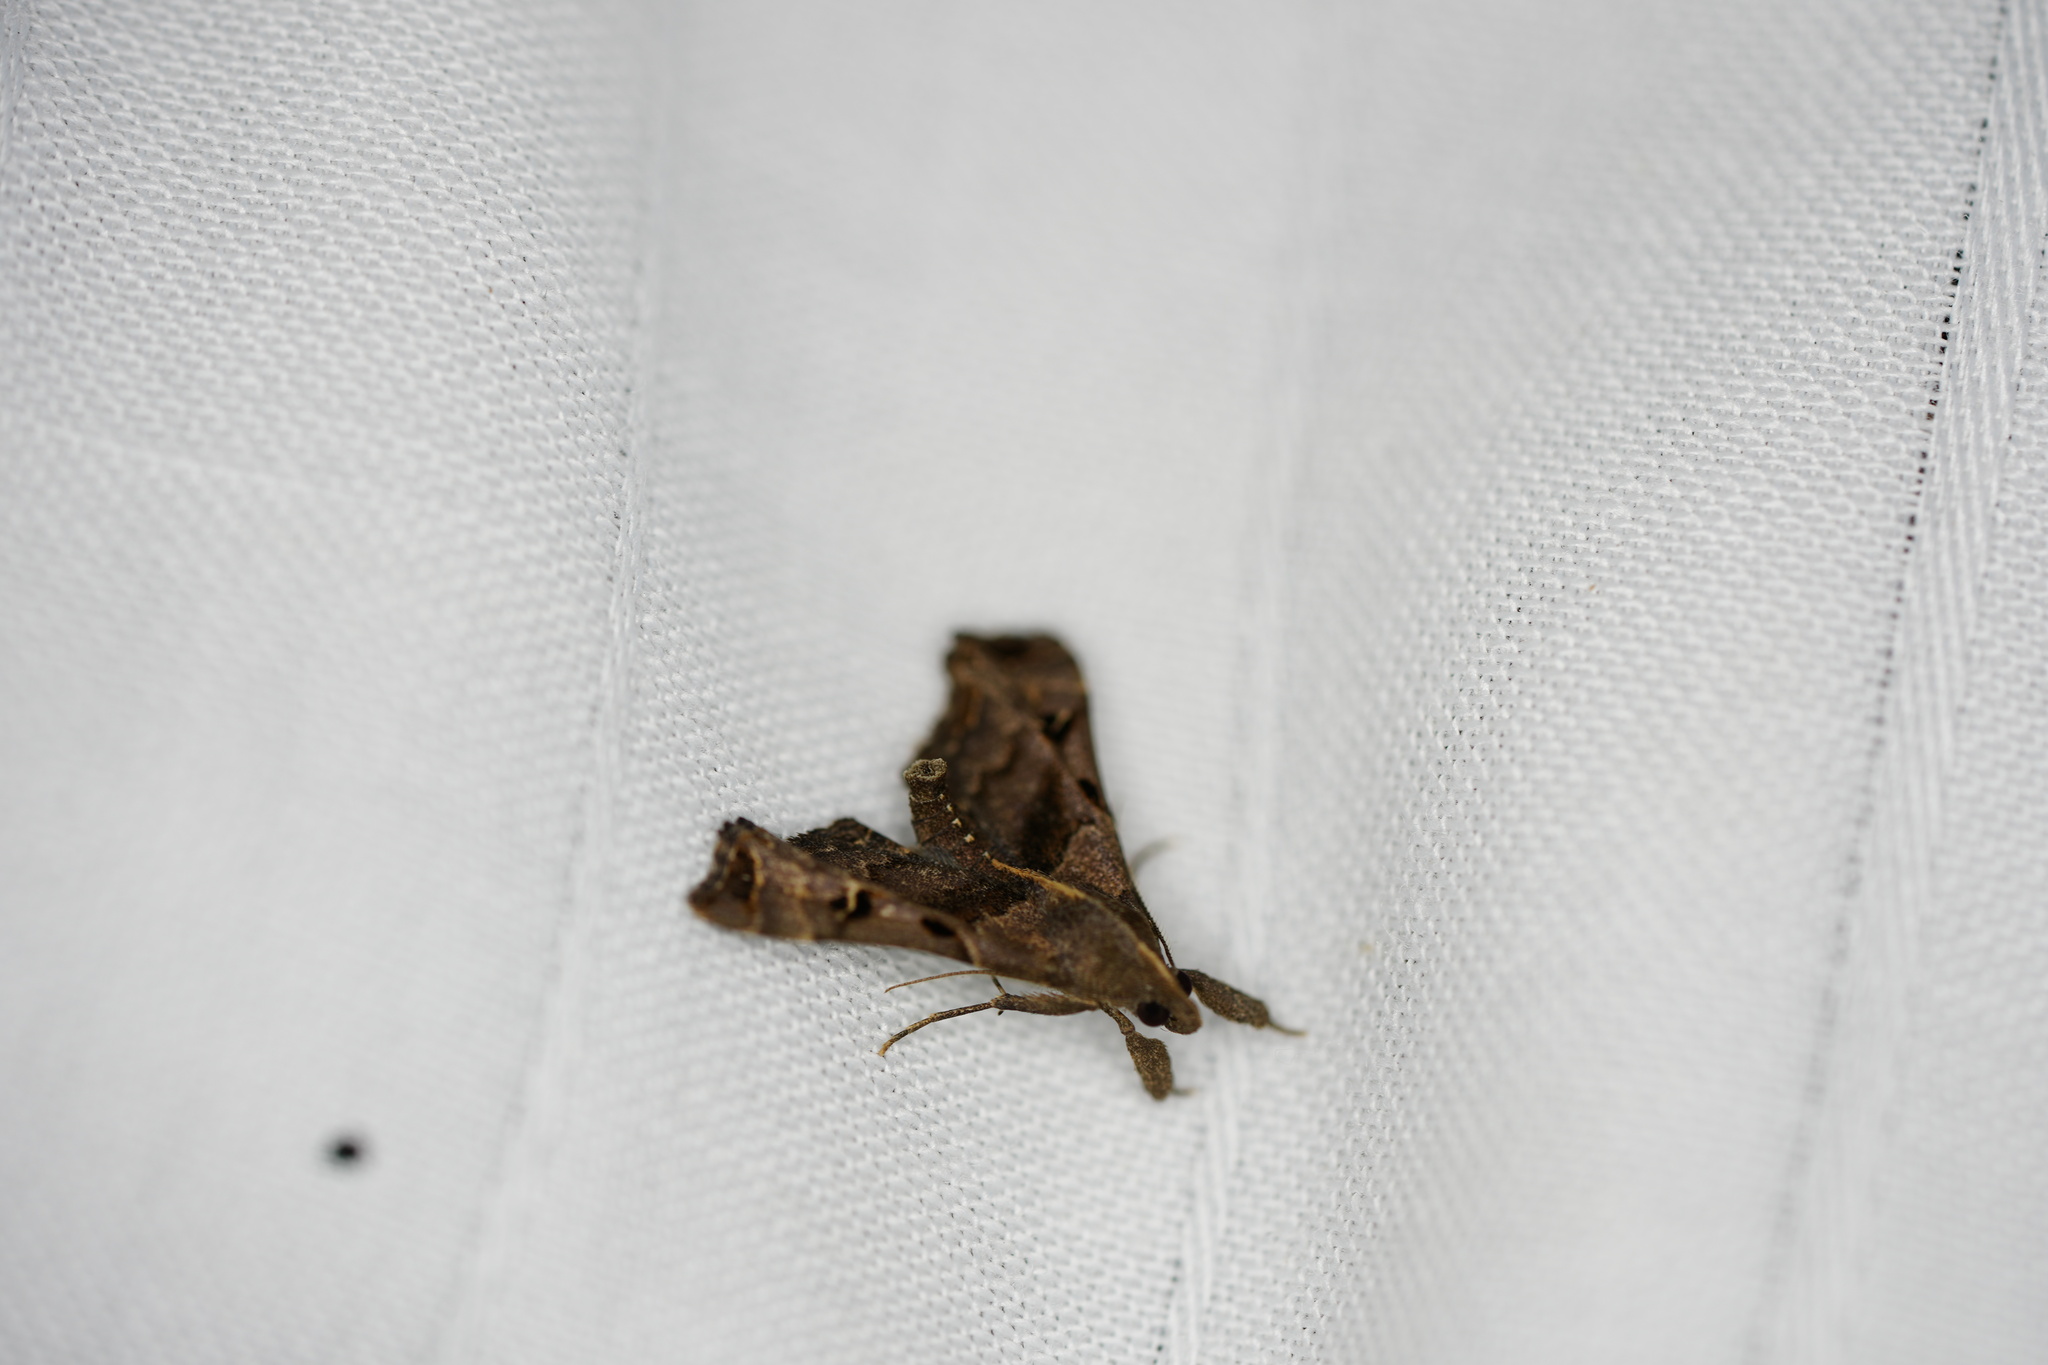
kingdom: Animalia
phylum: Arthropoda
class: Insecta
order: Lepidoptera
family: Erebidae
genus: Palthis
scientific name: Palthis asopialis
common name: Faint-spotted palthis moth
